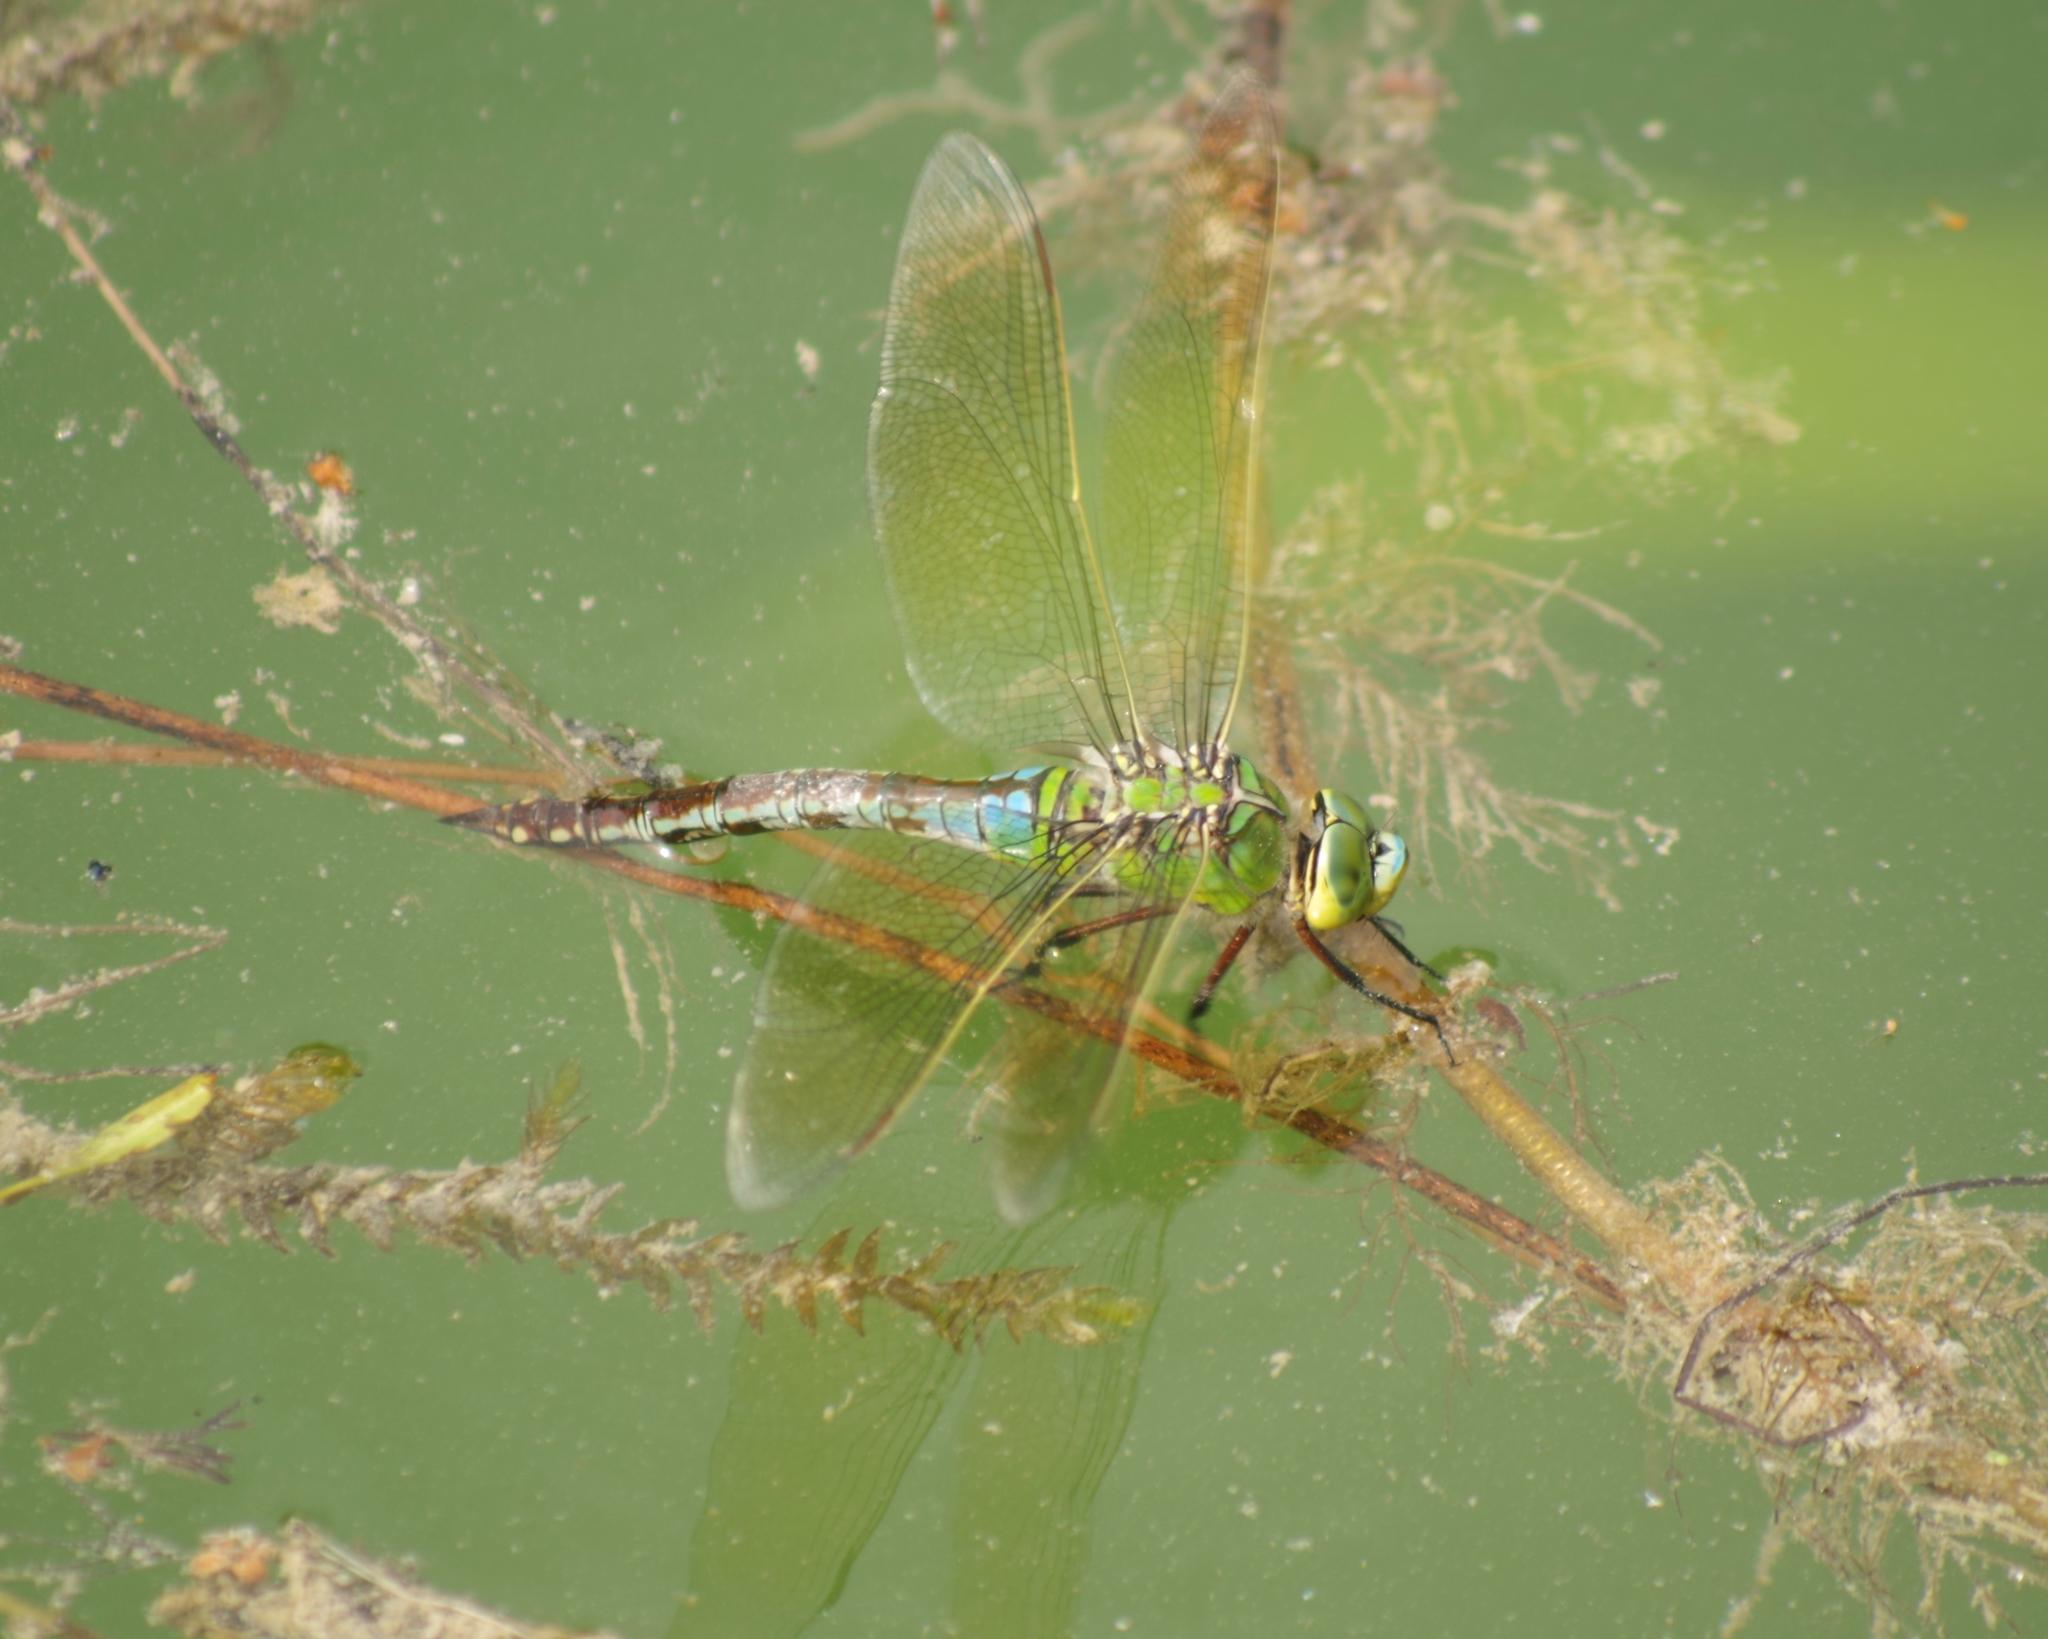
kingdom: Animalia
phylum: Arthropoda
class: Insecta
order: Odonata
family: Aeshnidae
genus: Anax
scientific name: Anax imperator
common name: Emperor dragonfly
